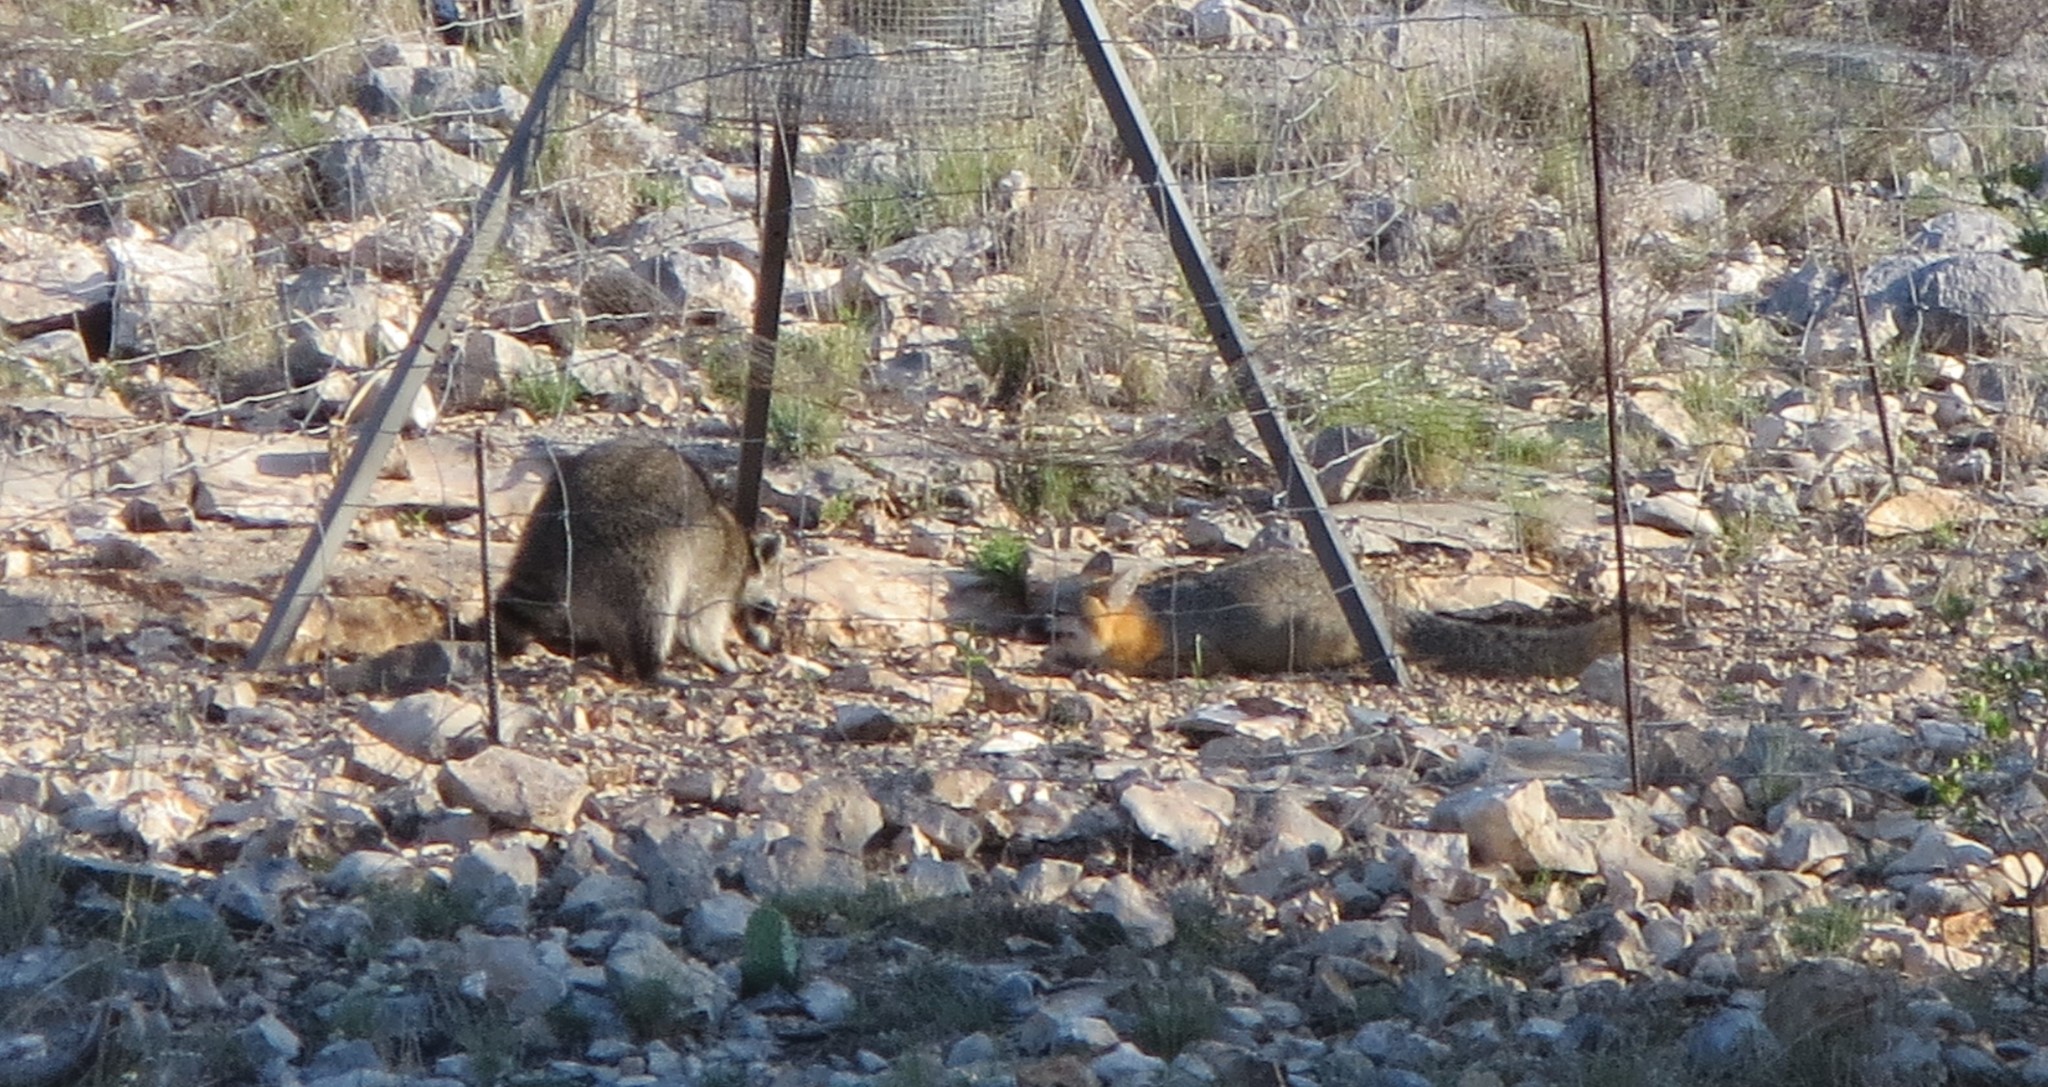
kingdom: Animalia
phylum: Chordata
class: Mammalia
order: Carnivora
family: Canidae
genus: Urocyon
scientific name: Urocyon cinereoargenteus
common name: Gray fox
